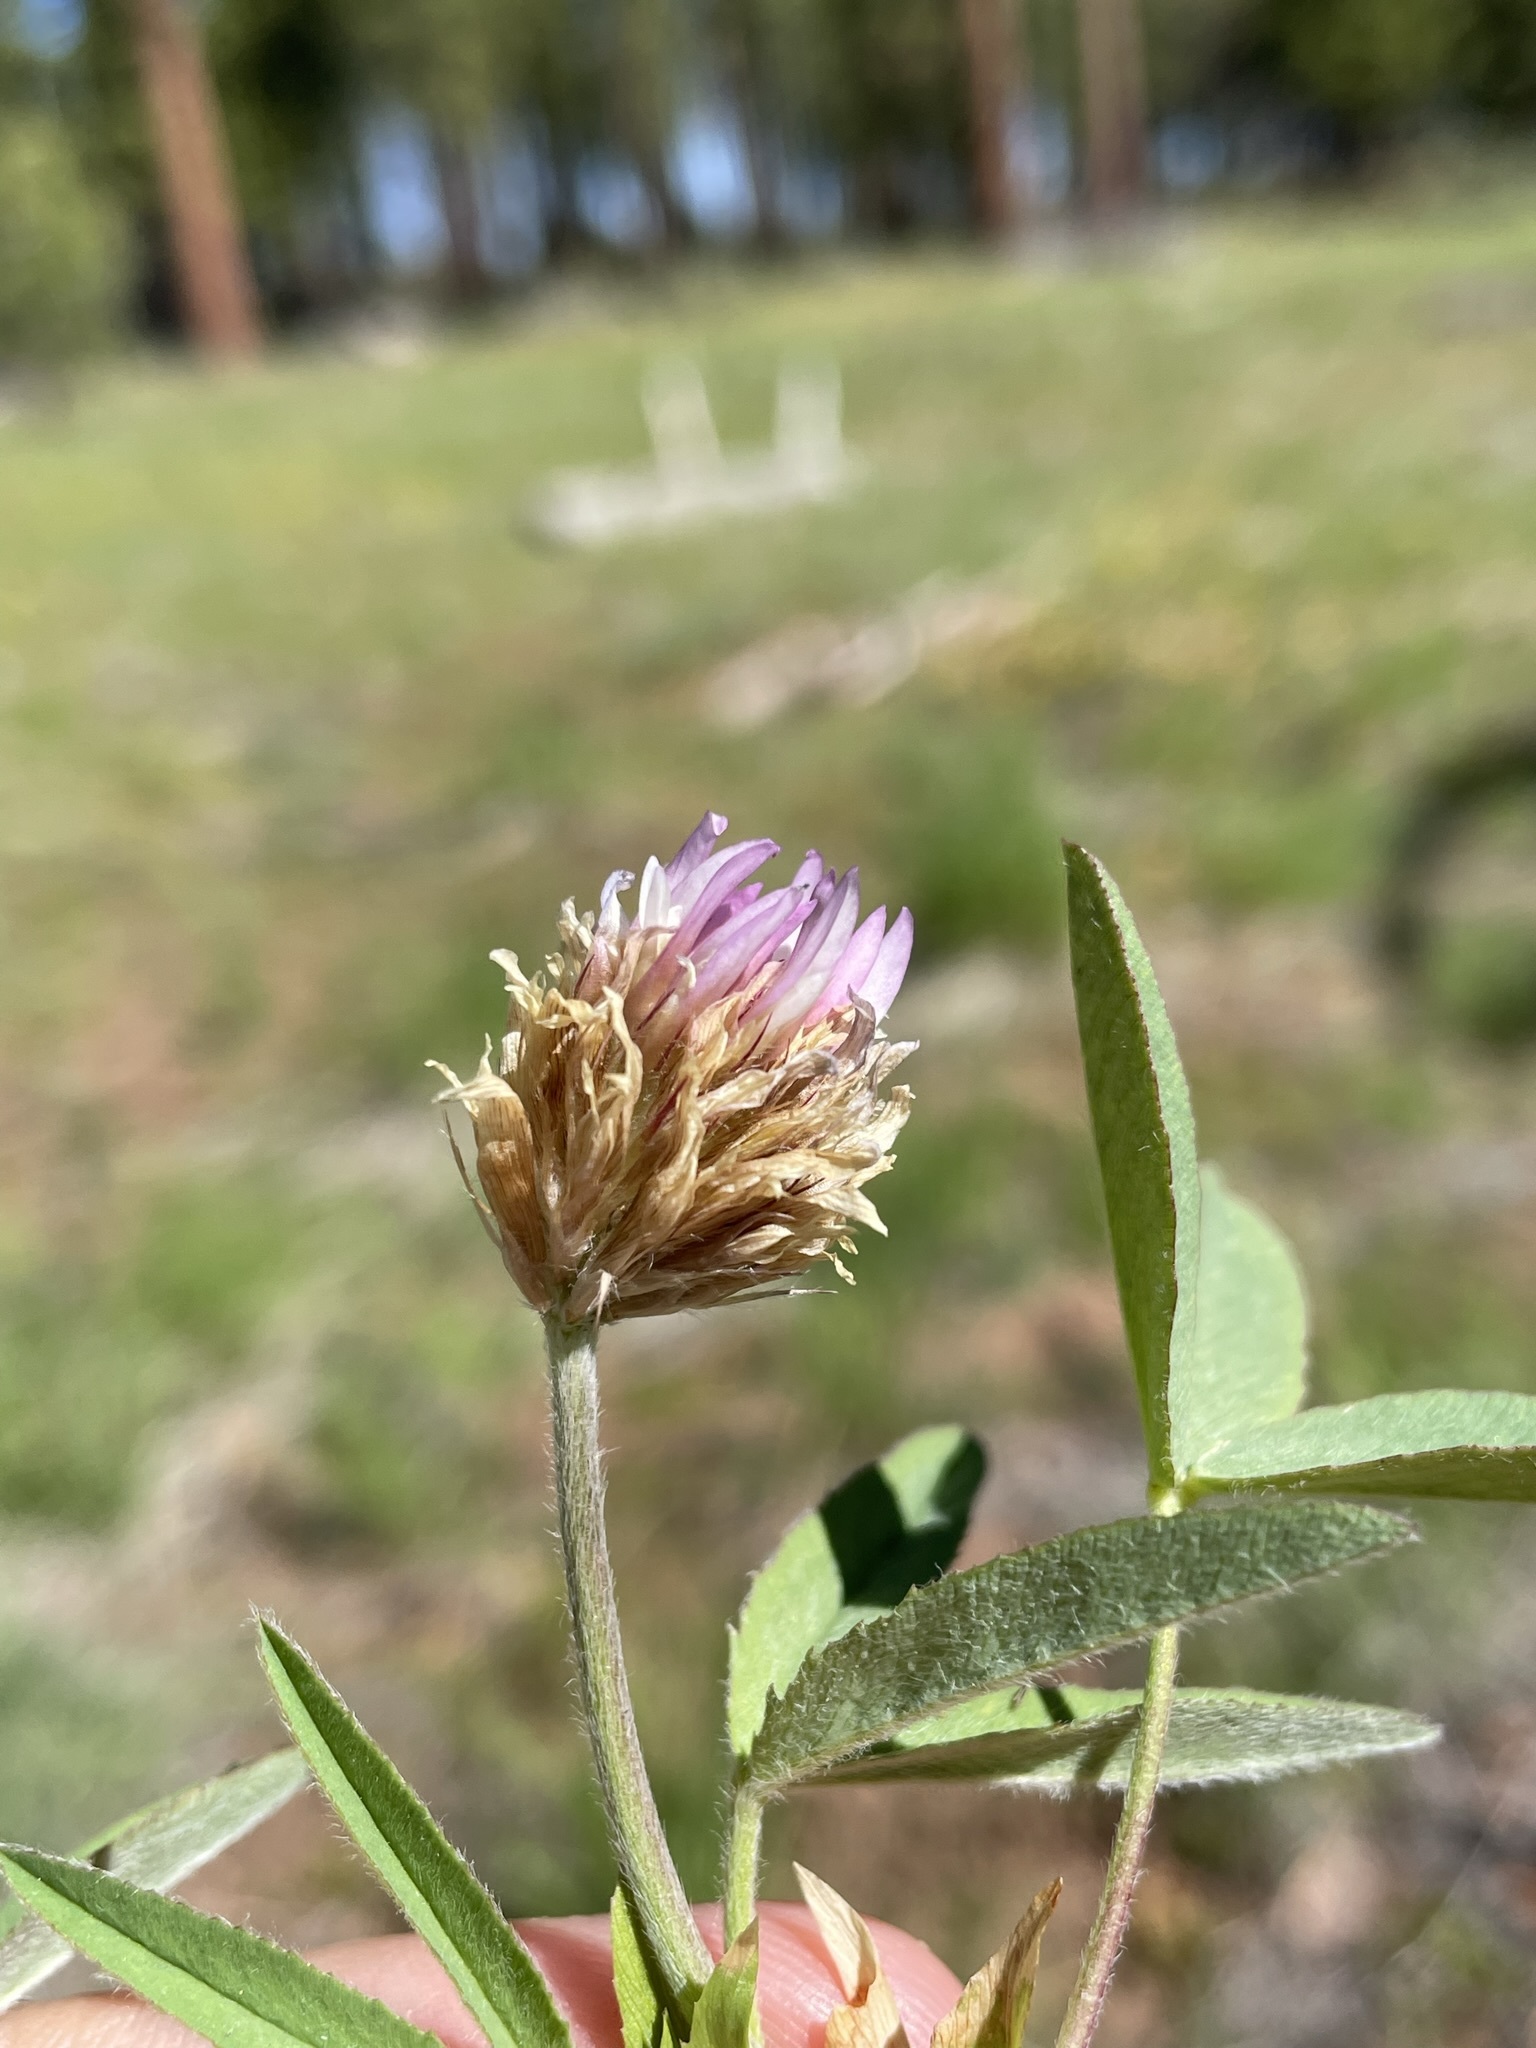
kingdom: Plantae
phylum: Tracheophyta
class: Magnoliopsida
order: Fabales
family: Fabaceae
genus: Trifolium
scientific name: Trifolium longipes
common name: Long-stalk clover
